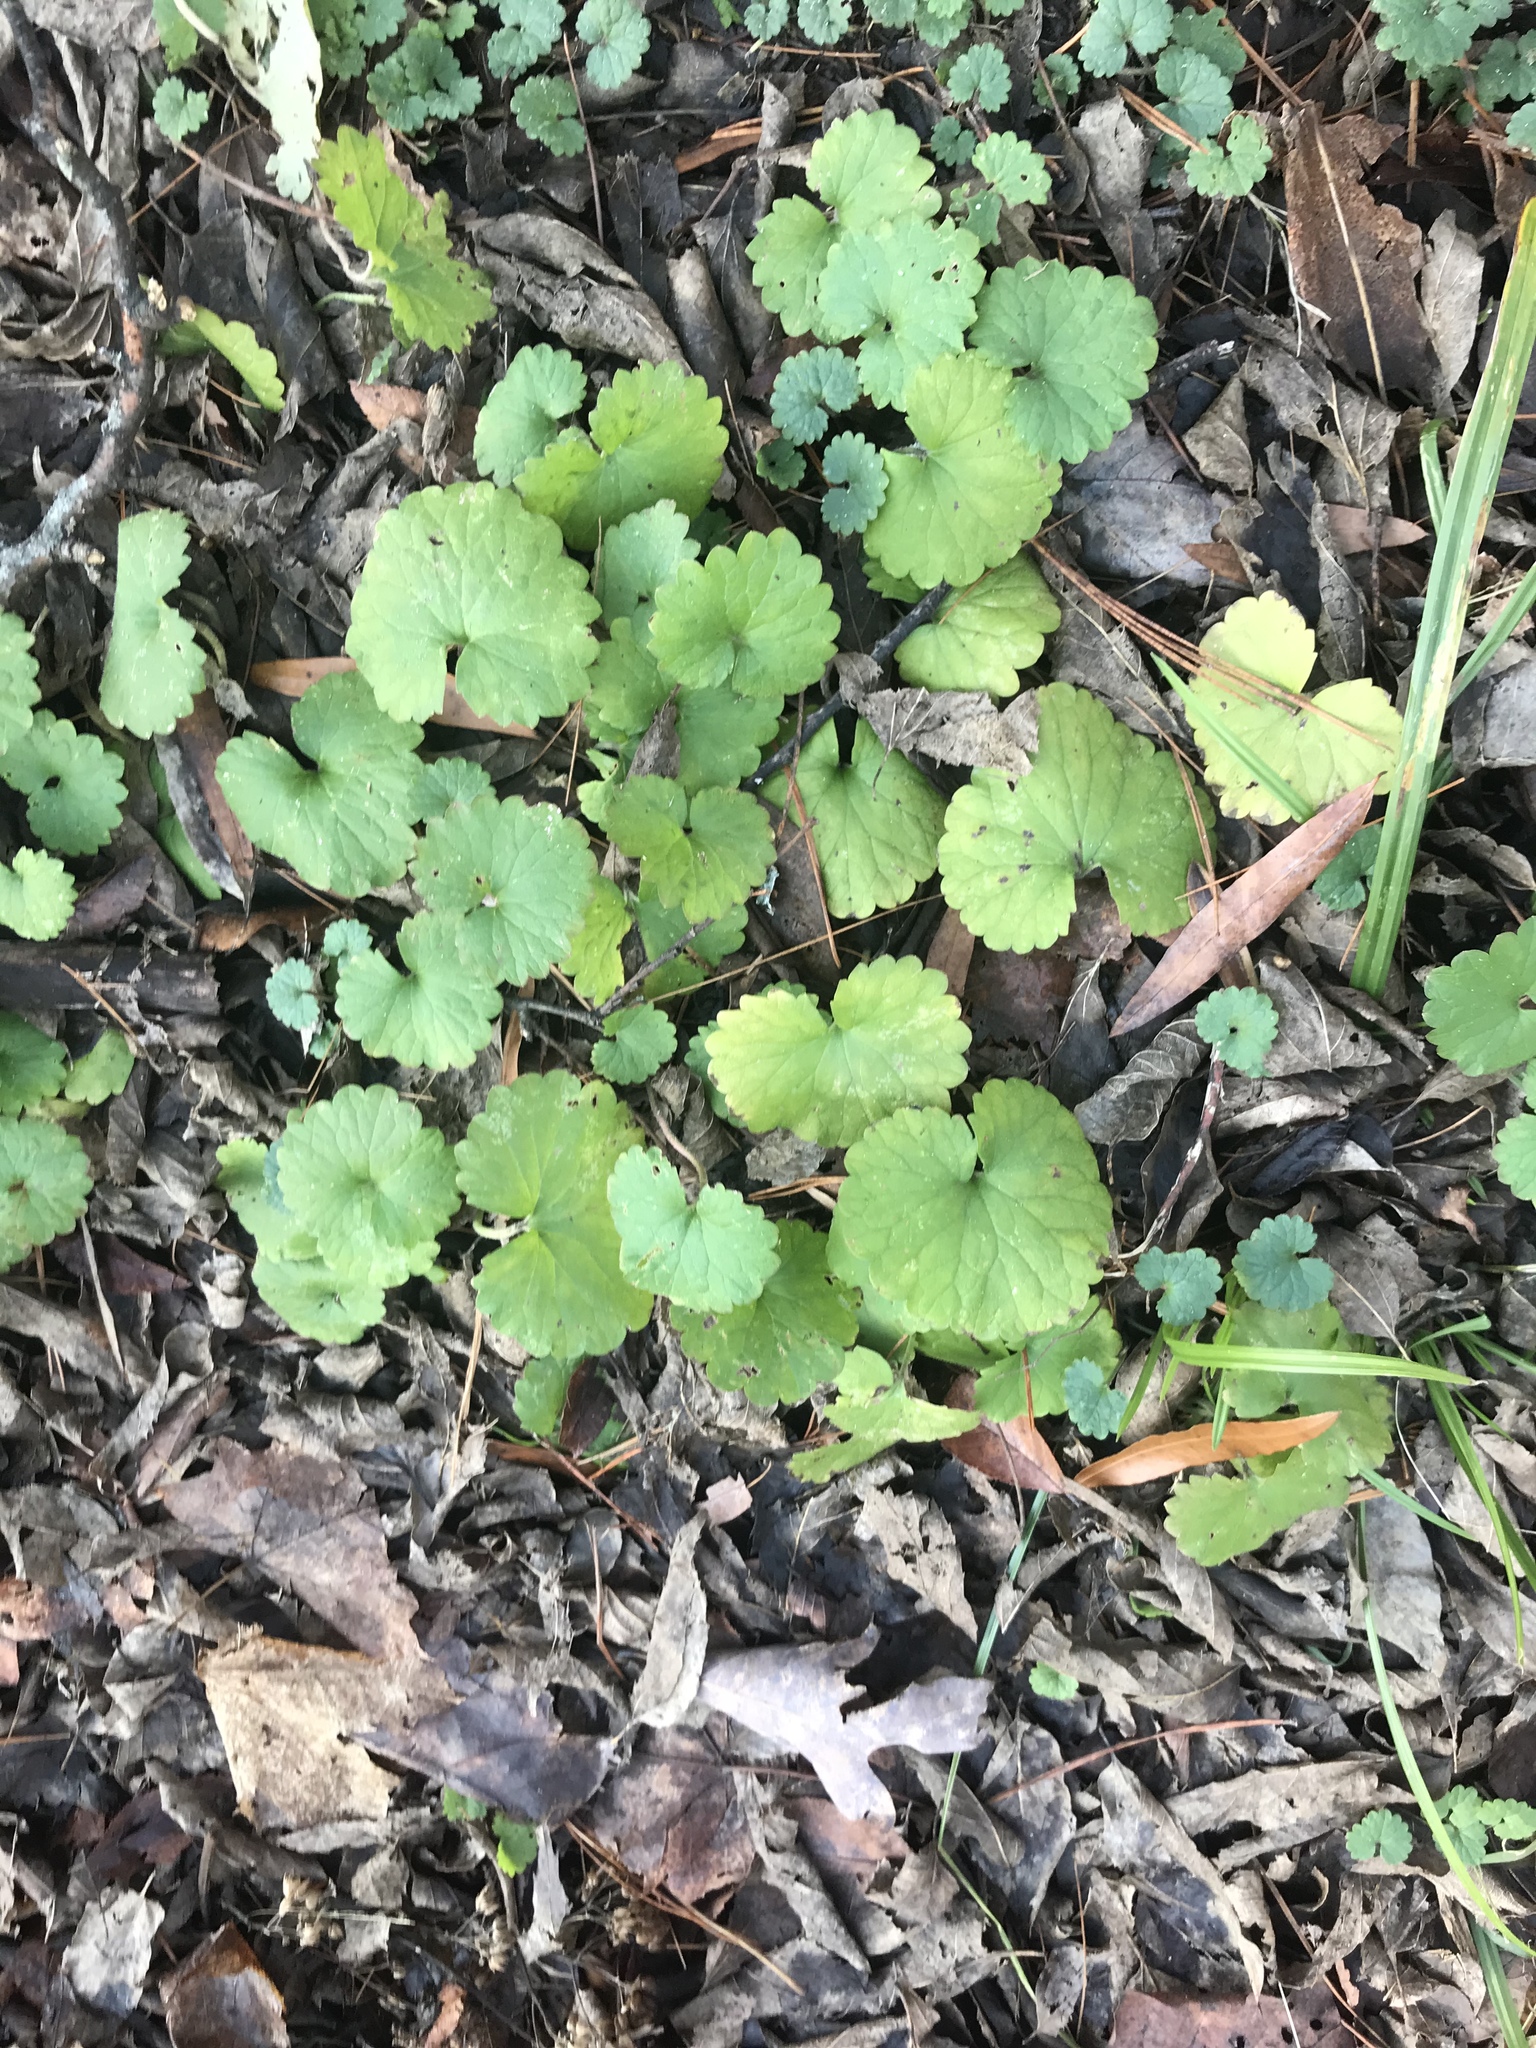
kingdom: Plantae
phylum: Tracheophyta
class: Magnoliopsida
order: Lamiales
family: Lamiaceae
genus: Glechoma
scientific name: Glechoma hederacea
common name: Ground ivy
